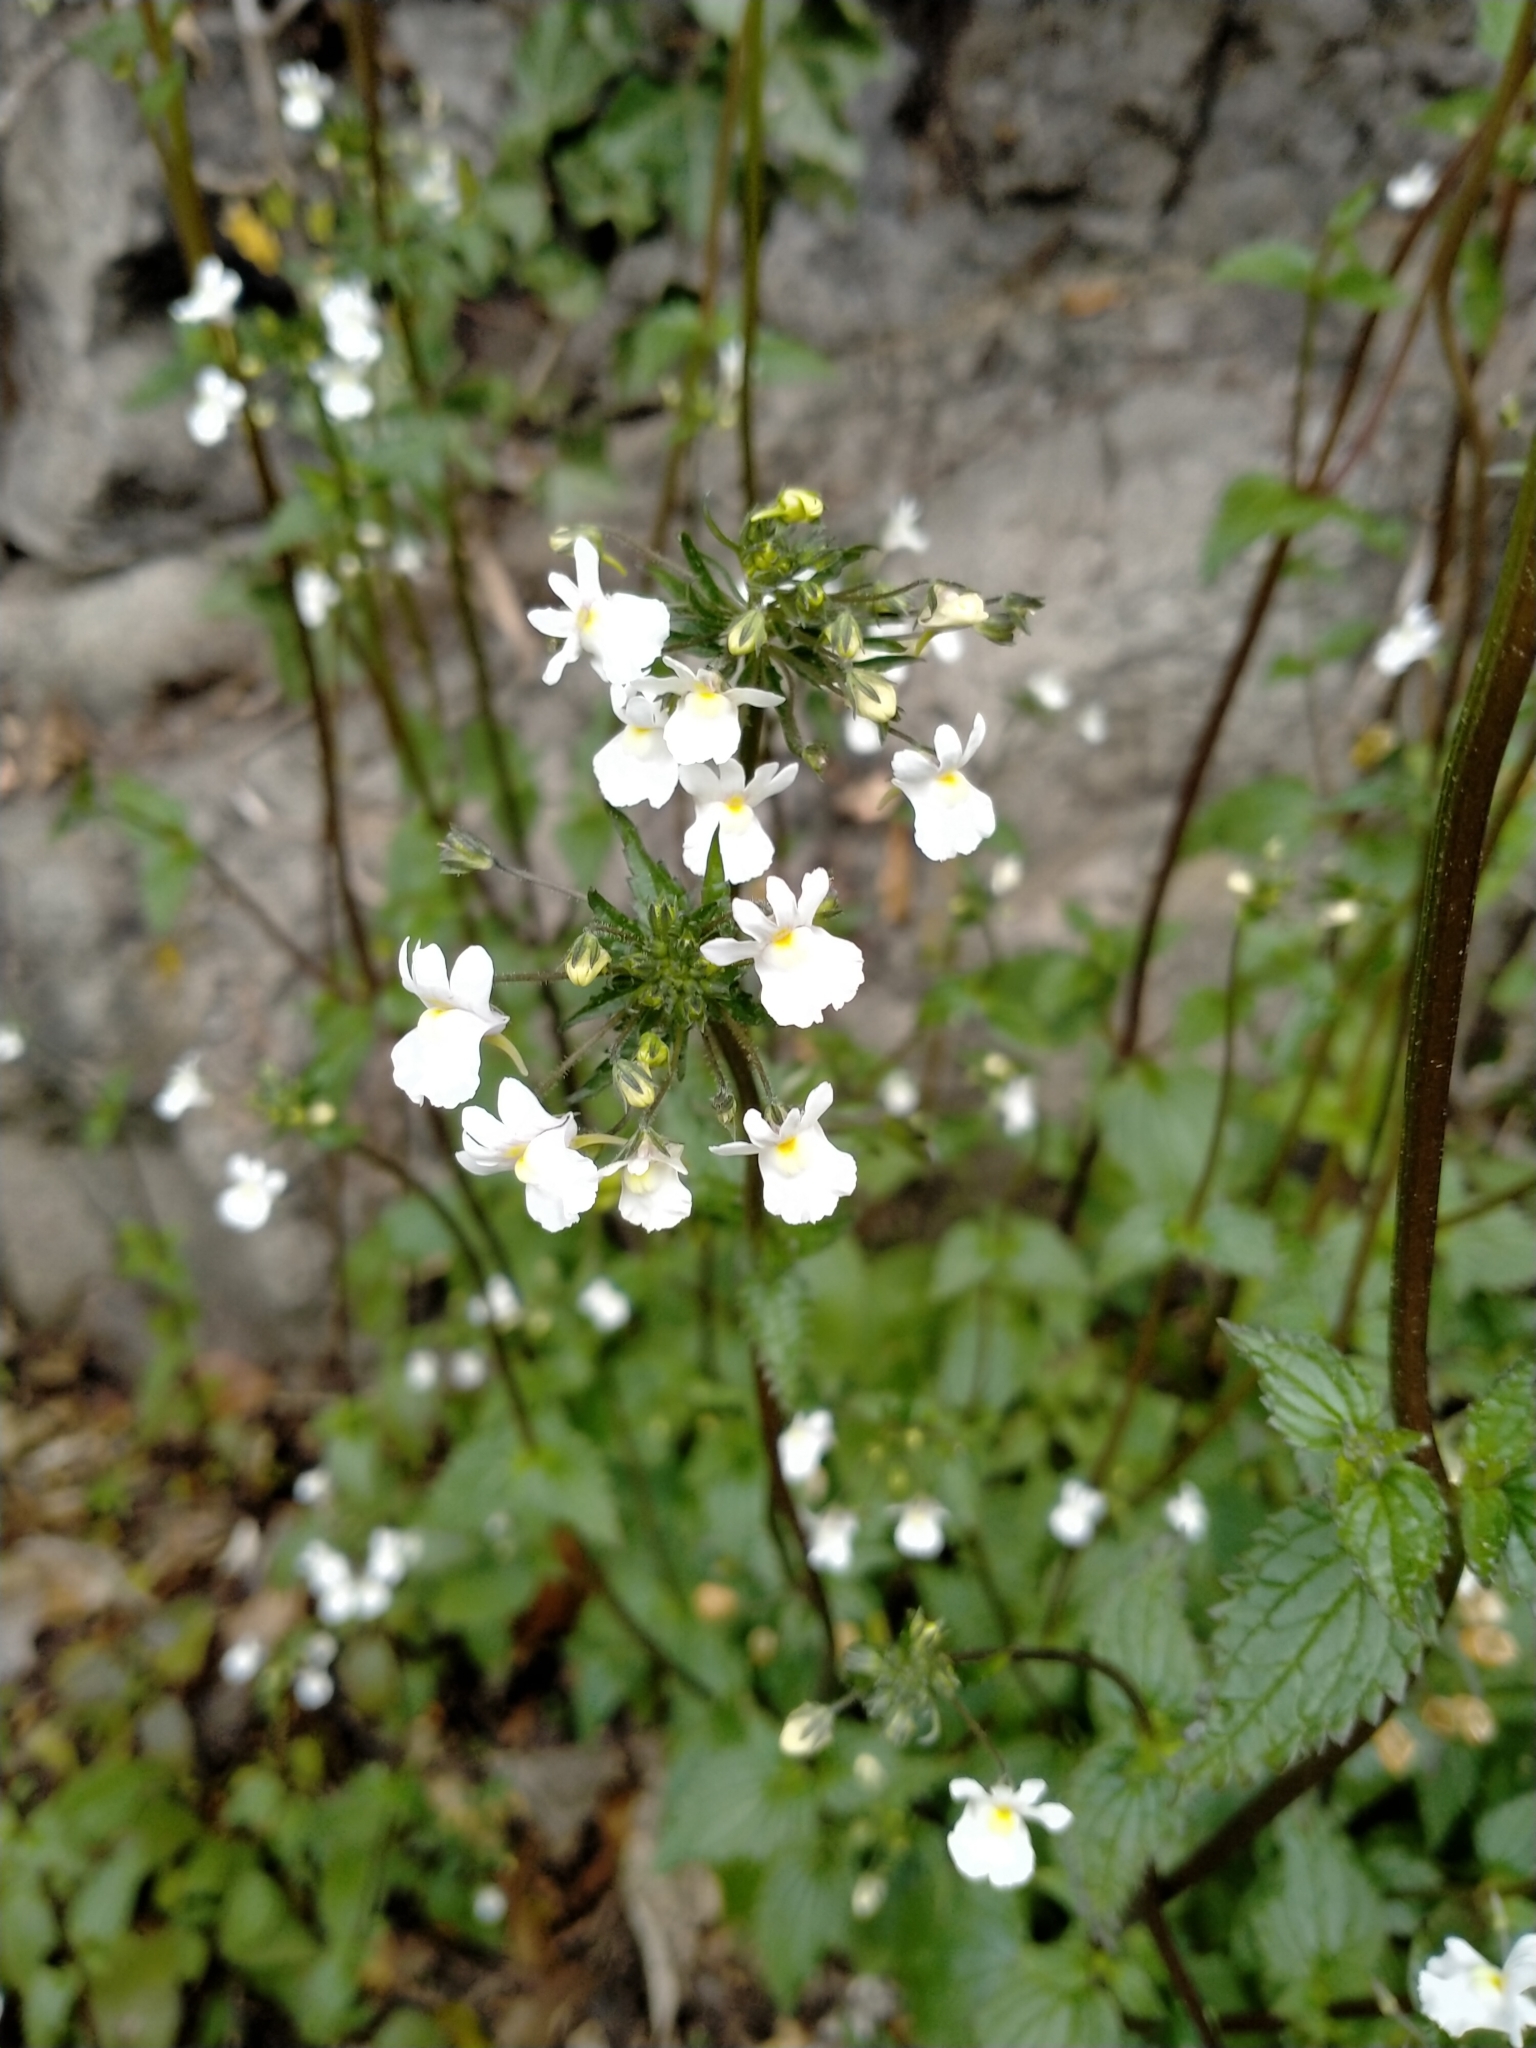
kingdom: Plantae
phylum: Tracheophyta
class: Magnoliopsida
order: Lamiales
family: Scrophulariaceae
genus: Nemesia
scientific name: Nemesia floribunda
